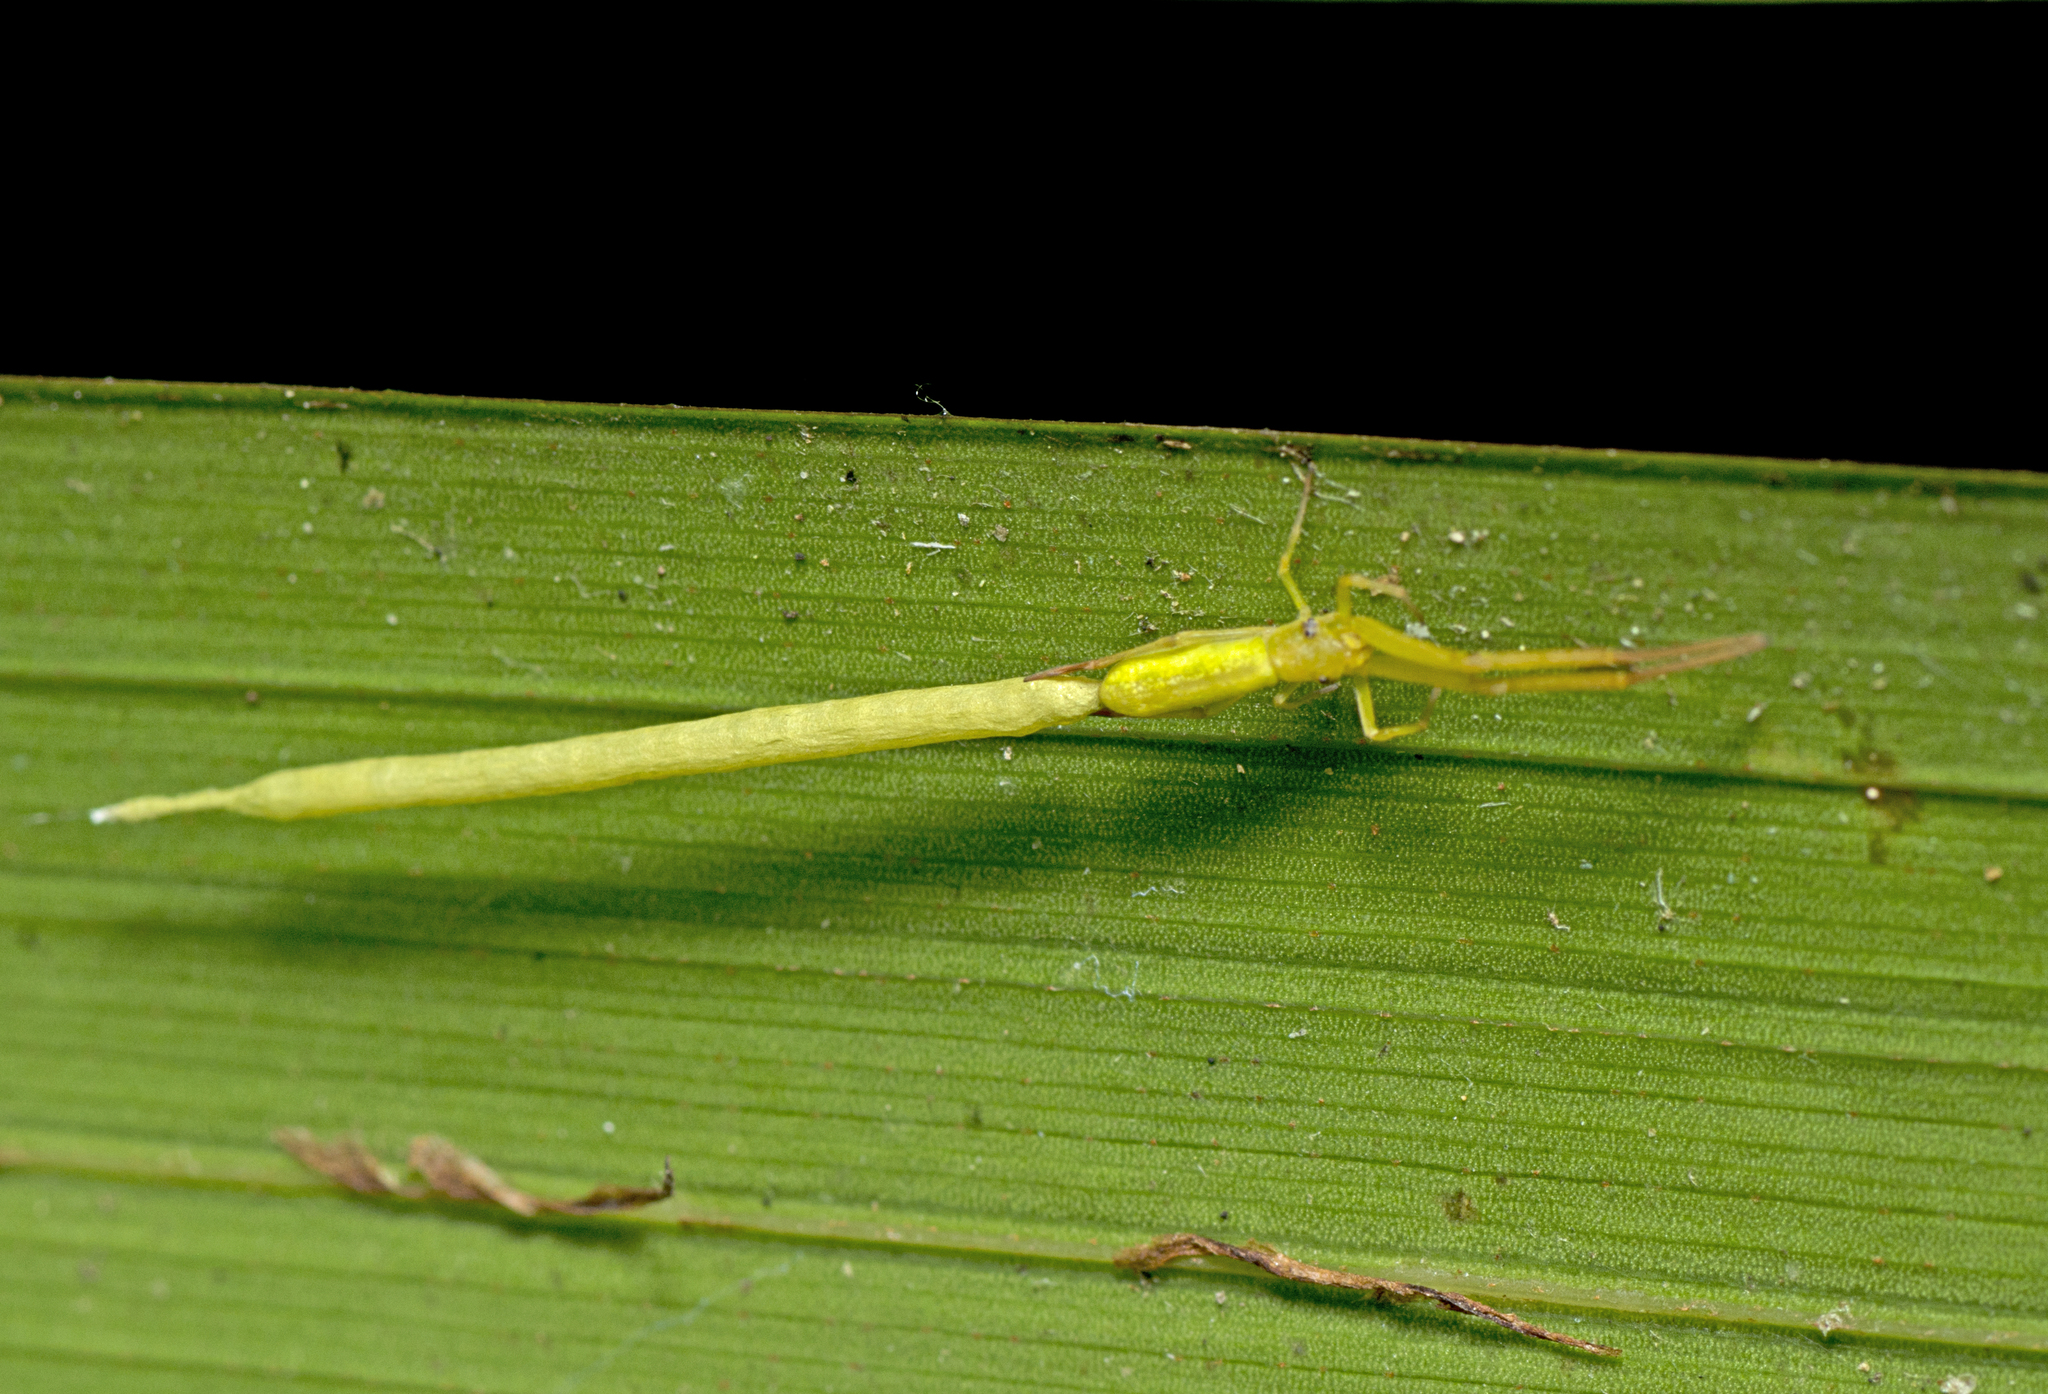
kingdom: Animalia
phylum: Arthropoda
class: Arachnida
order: Araneae
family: Uloboridae
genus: Miagrammopes
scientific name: Miagrammopes flavus
